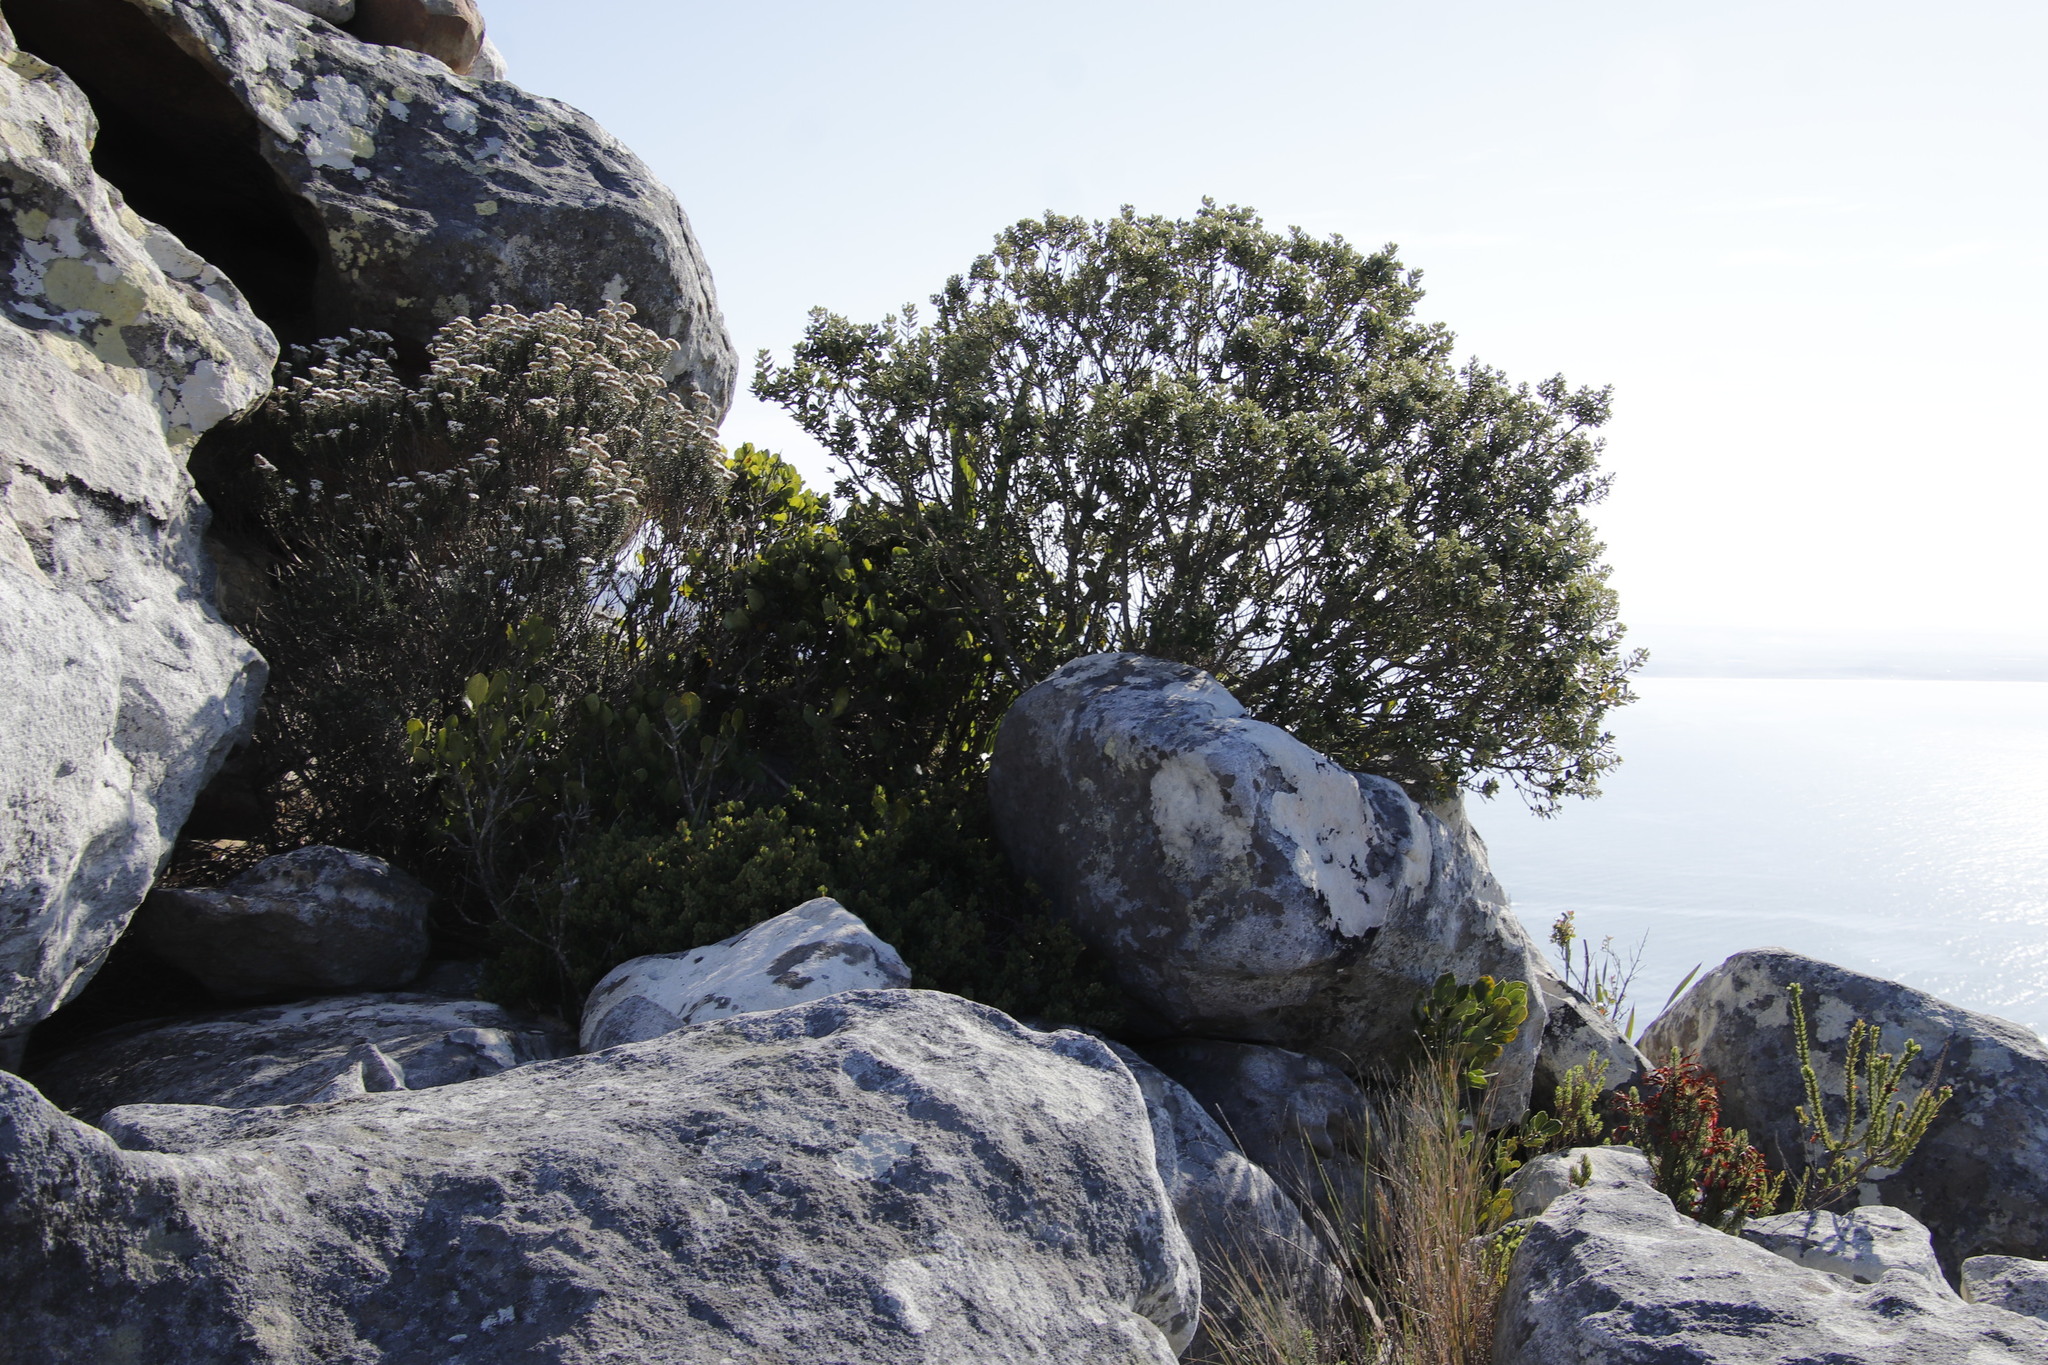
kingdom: Plantae
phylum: Tracheophyta
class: Magnoliopsida
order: Rosales
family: Rhamnaceae
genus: Phylica
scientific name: Phylica buxifolia
